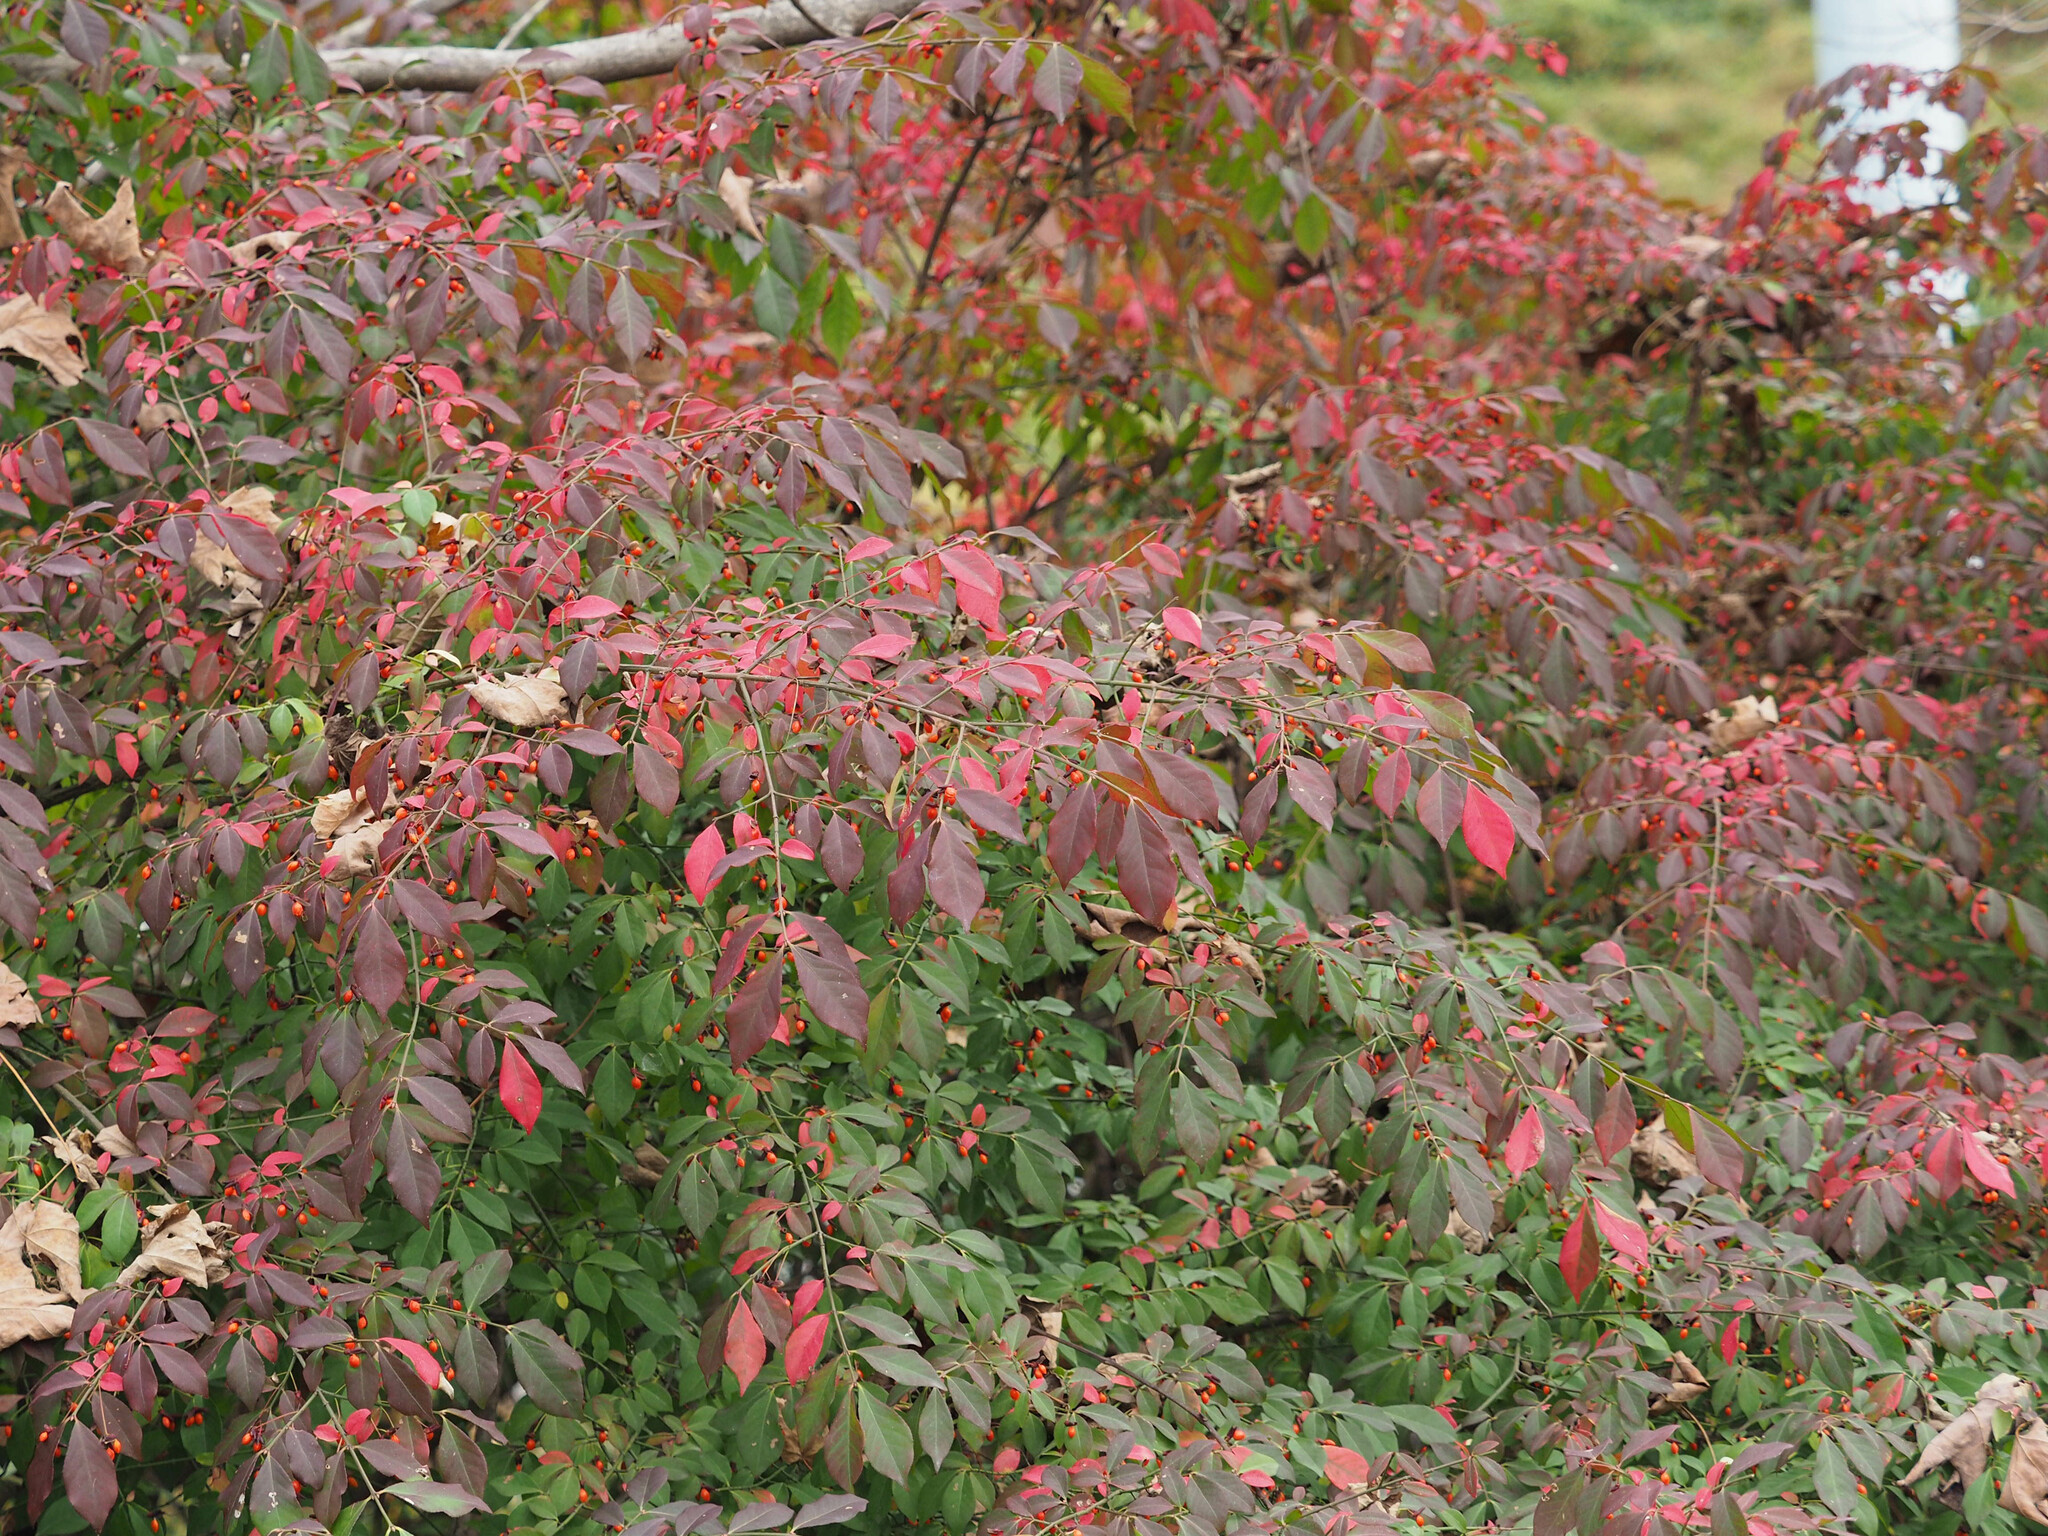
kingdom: Plantae
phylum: Tracheophyta
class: Magnoliopsida
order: Celastrales
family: Celastraceae
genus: Euonymus
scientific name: Euonymus alatus
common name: Winged euonymus
